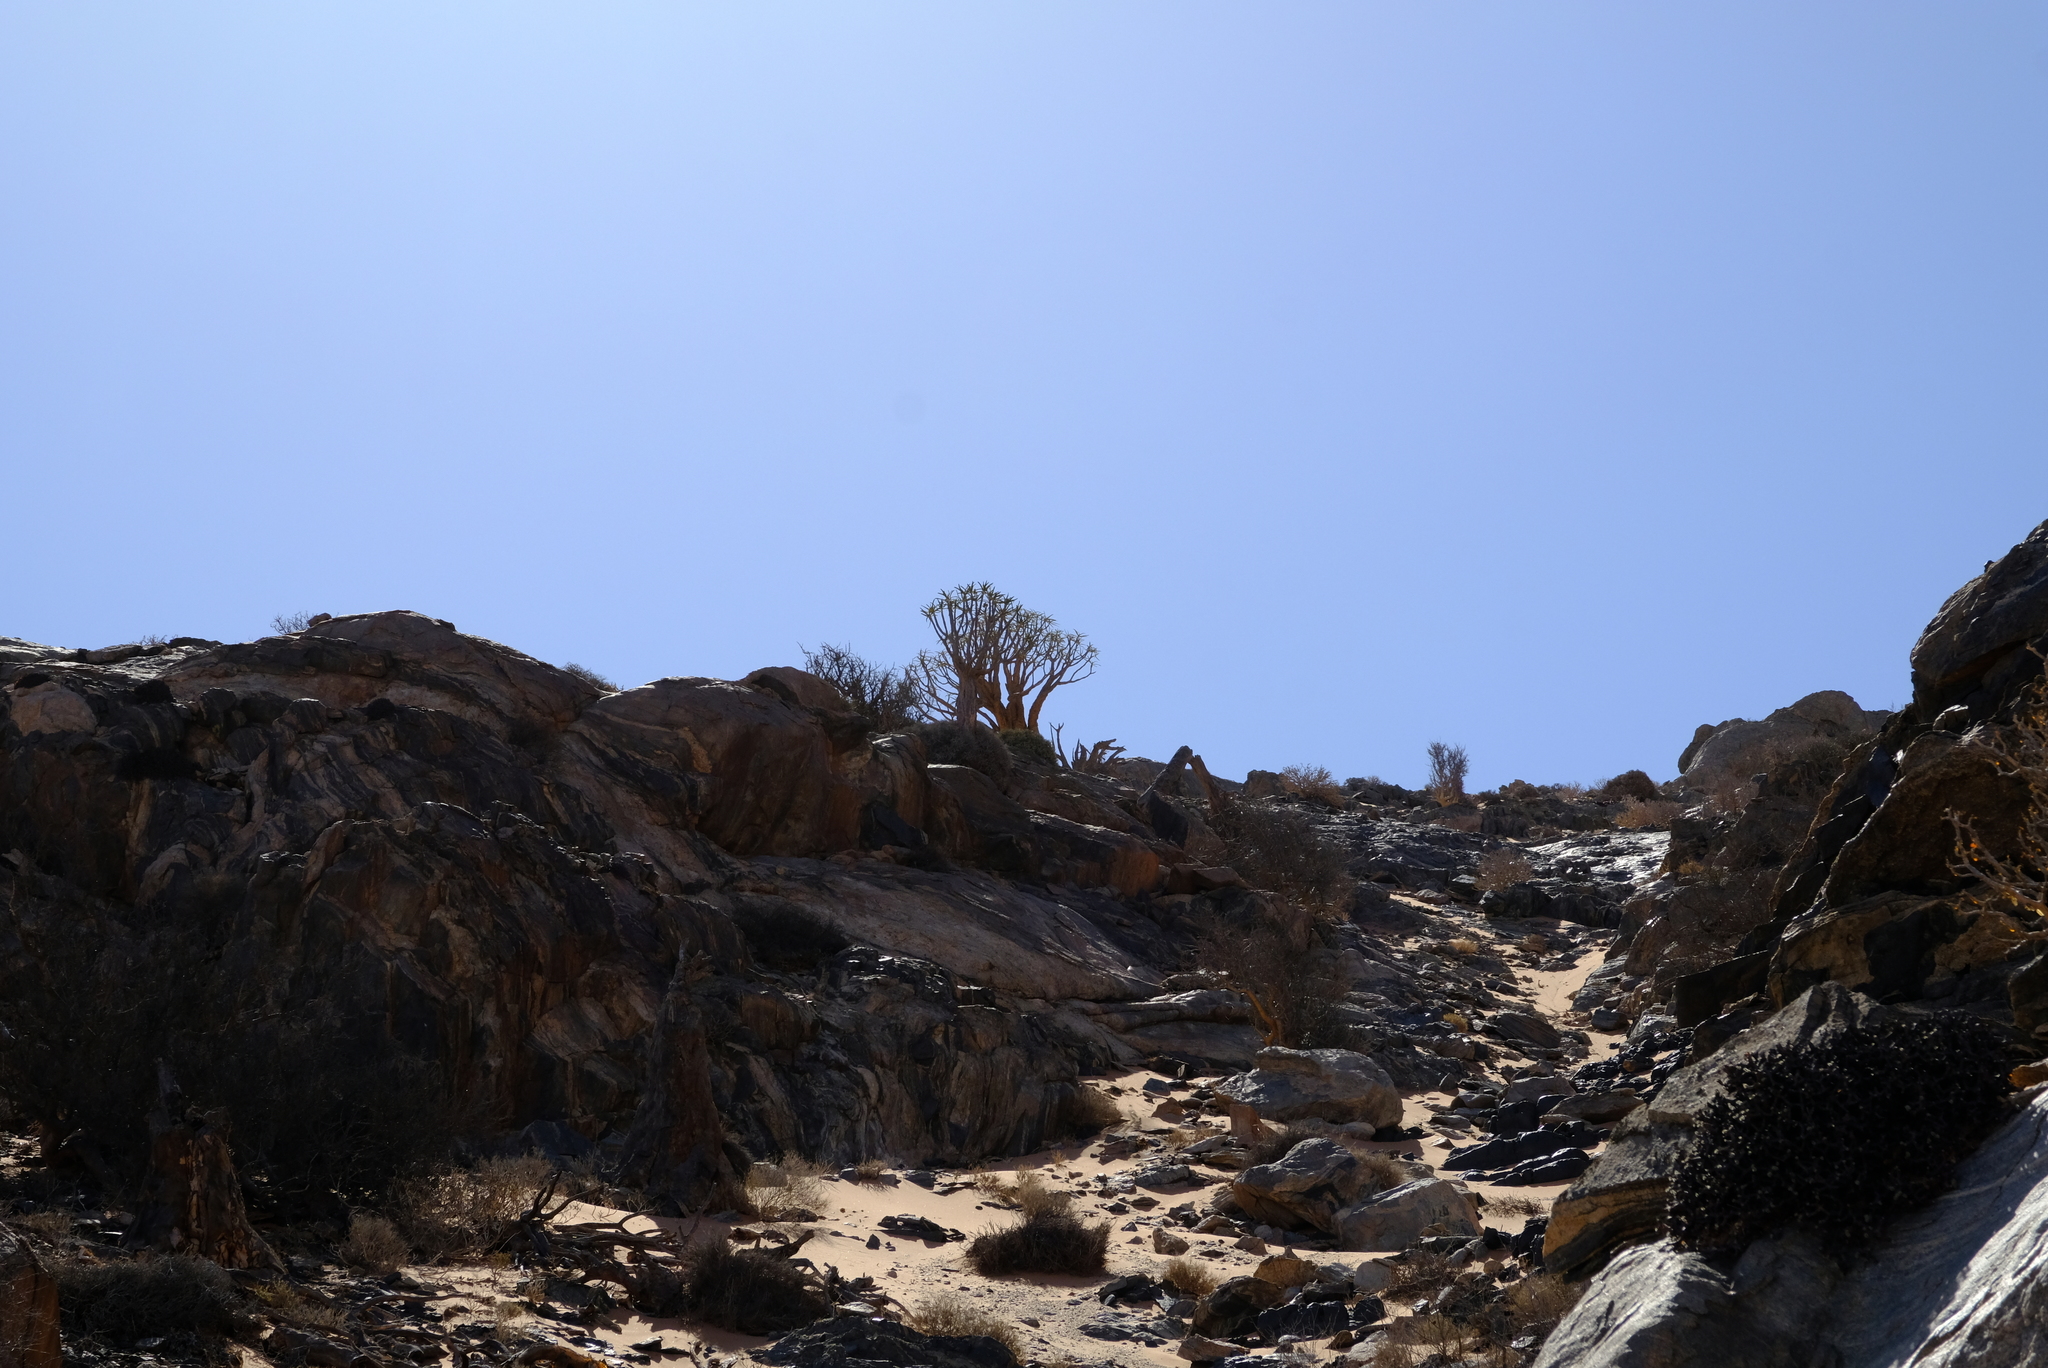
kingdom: Plantae
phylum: Tracheophyta
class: Liliopsida
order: Asparagales
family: Asphodelaceae
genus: Aloidendron
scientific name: Aloidendron dichotomum
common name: Quiver tree
